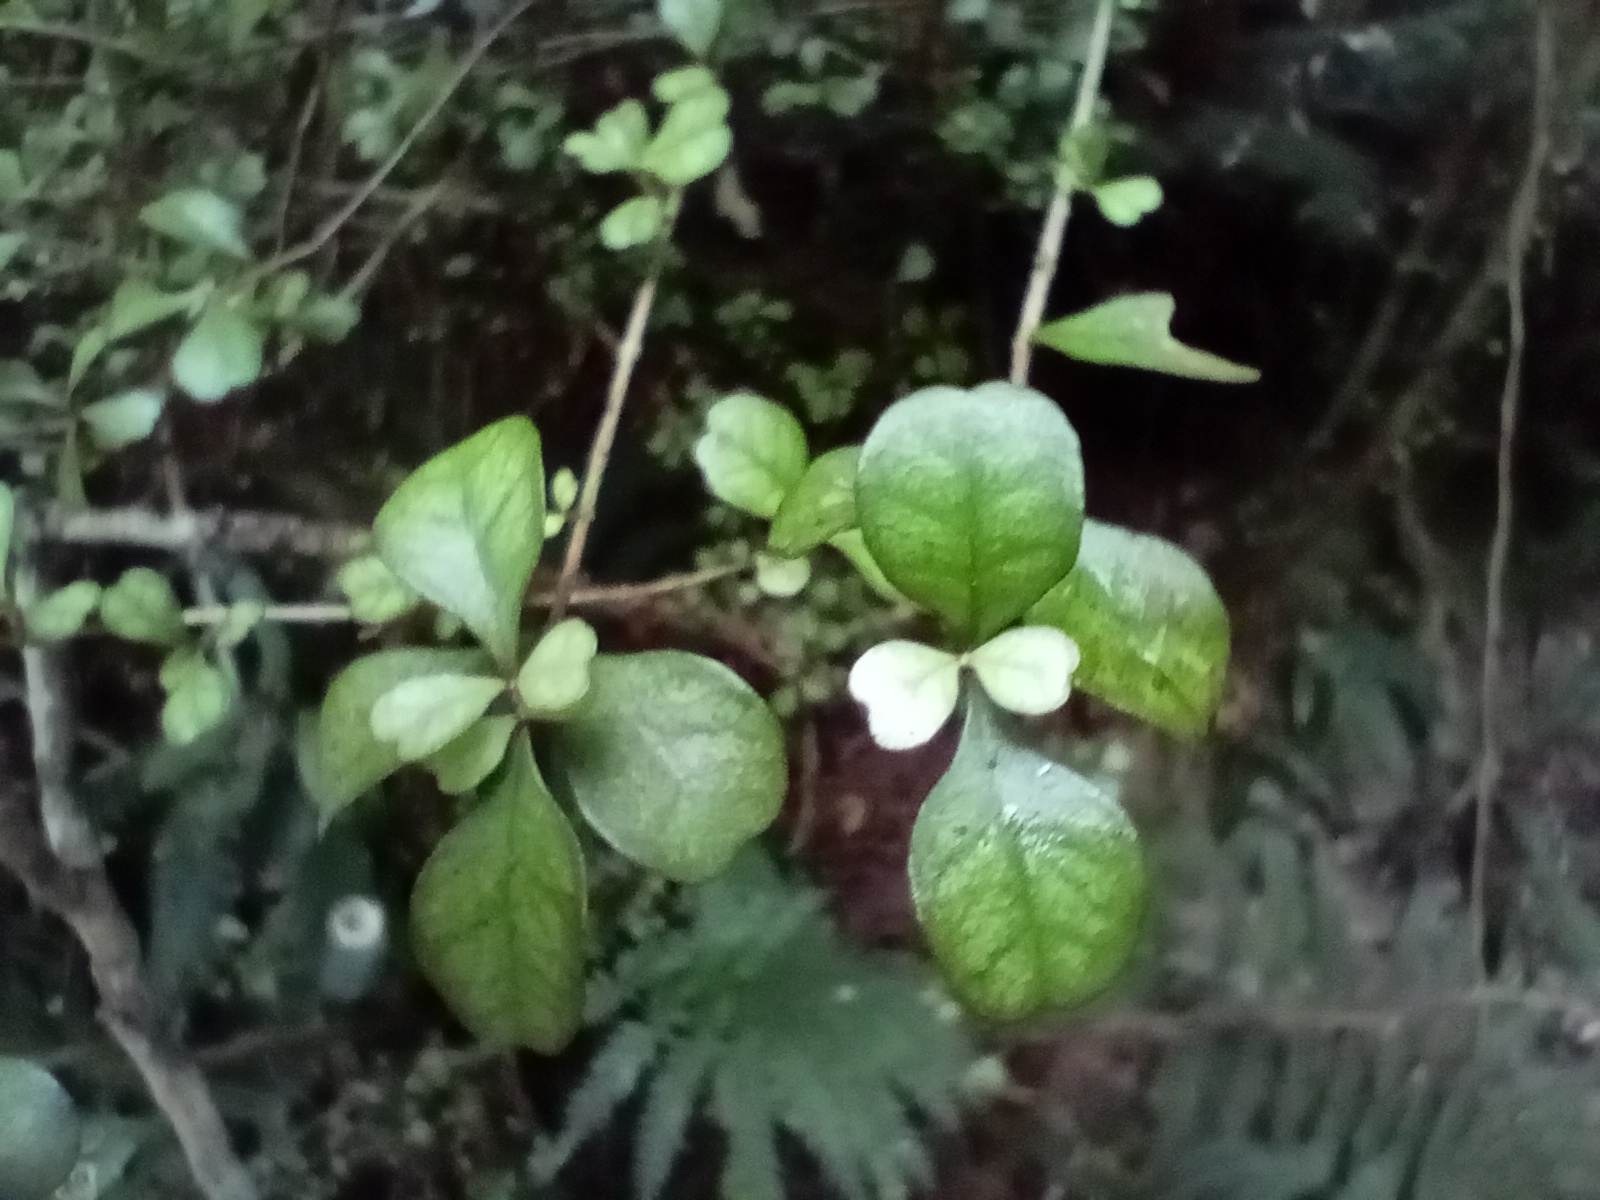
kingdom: Plantae
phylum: Tracheophyta
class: Magnoliopsida
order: Myrtales
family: Myrtaceae
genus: Lophomyrtus
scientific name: Lophomyrtus obcordata
